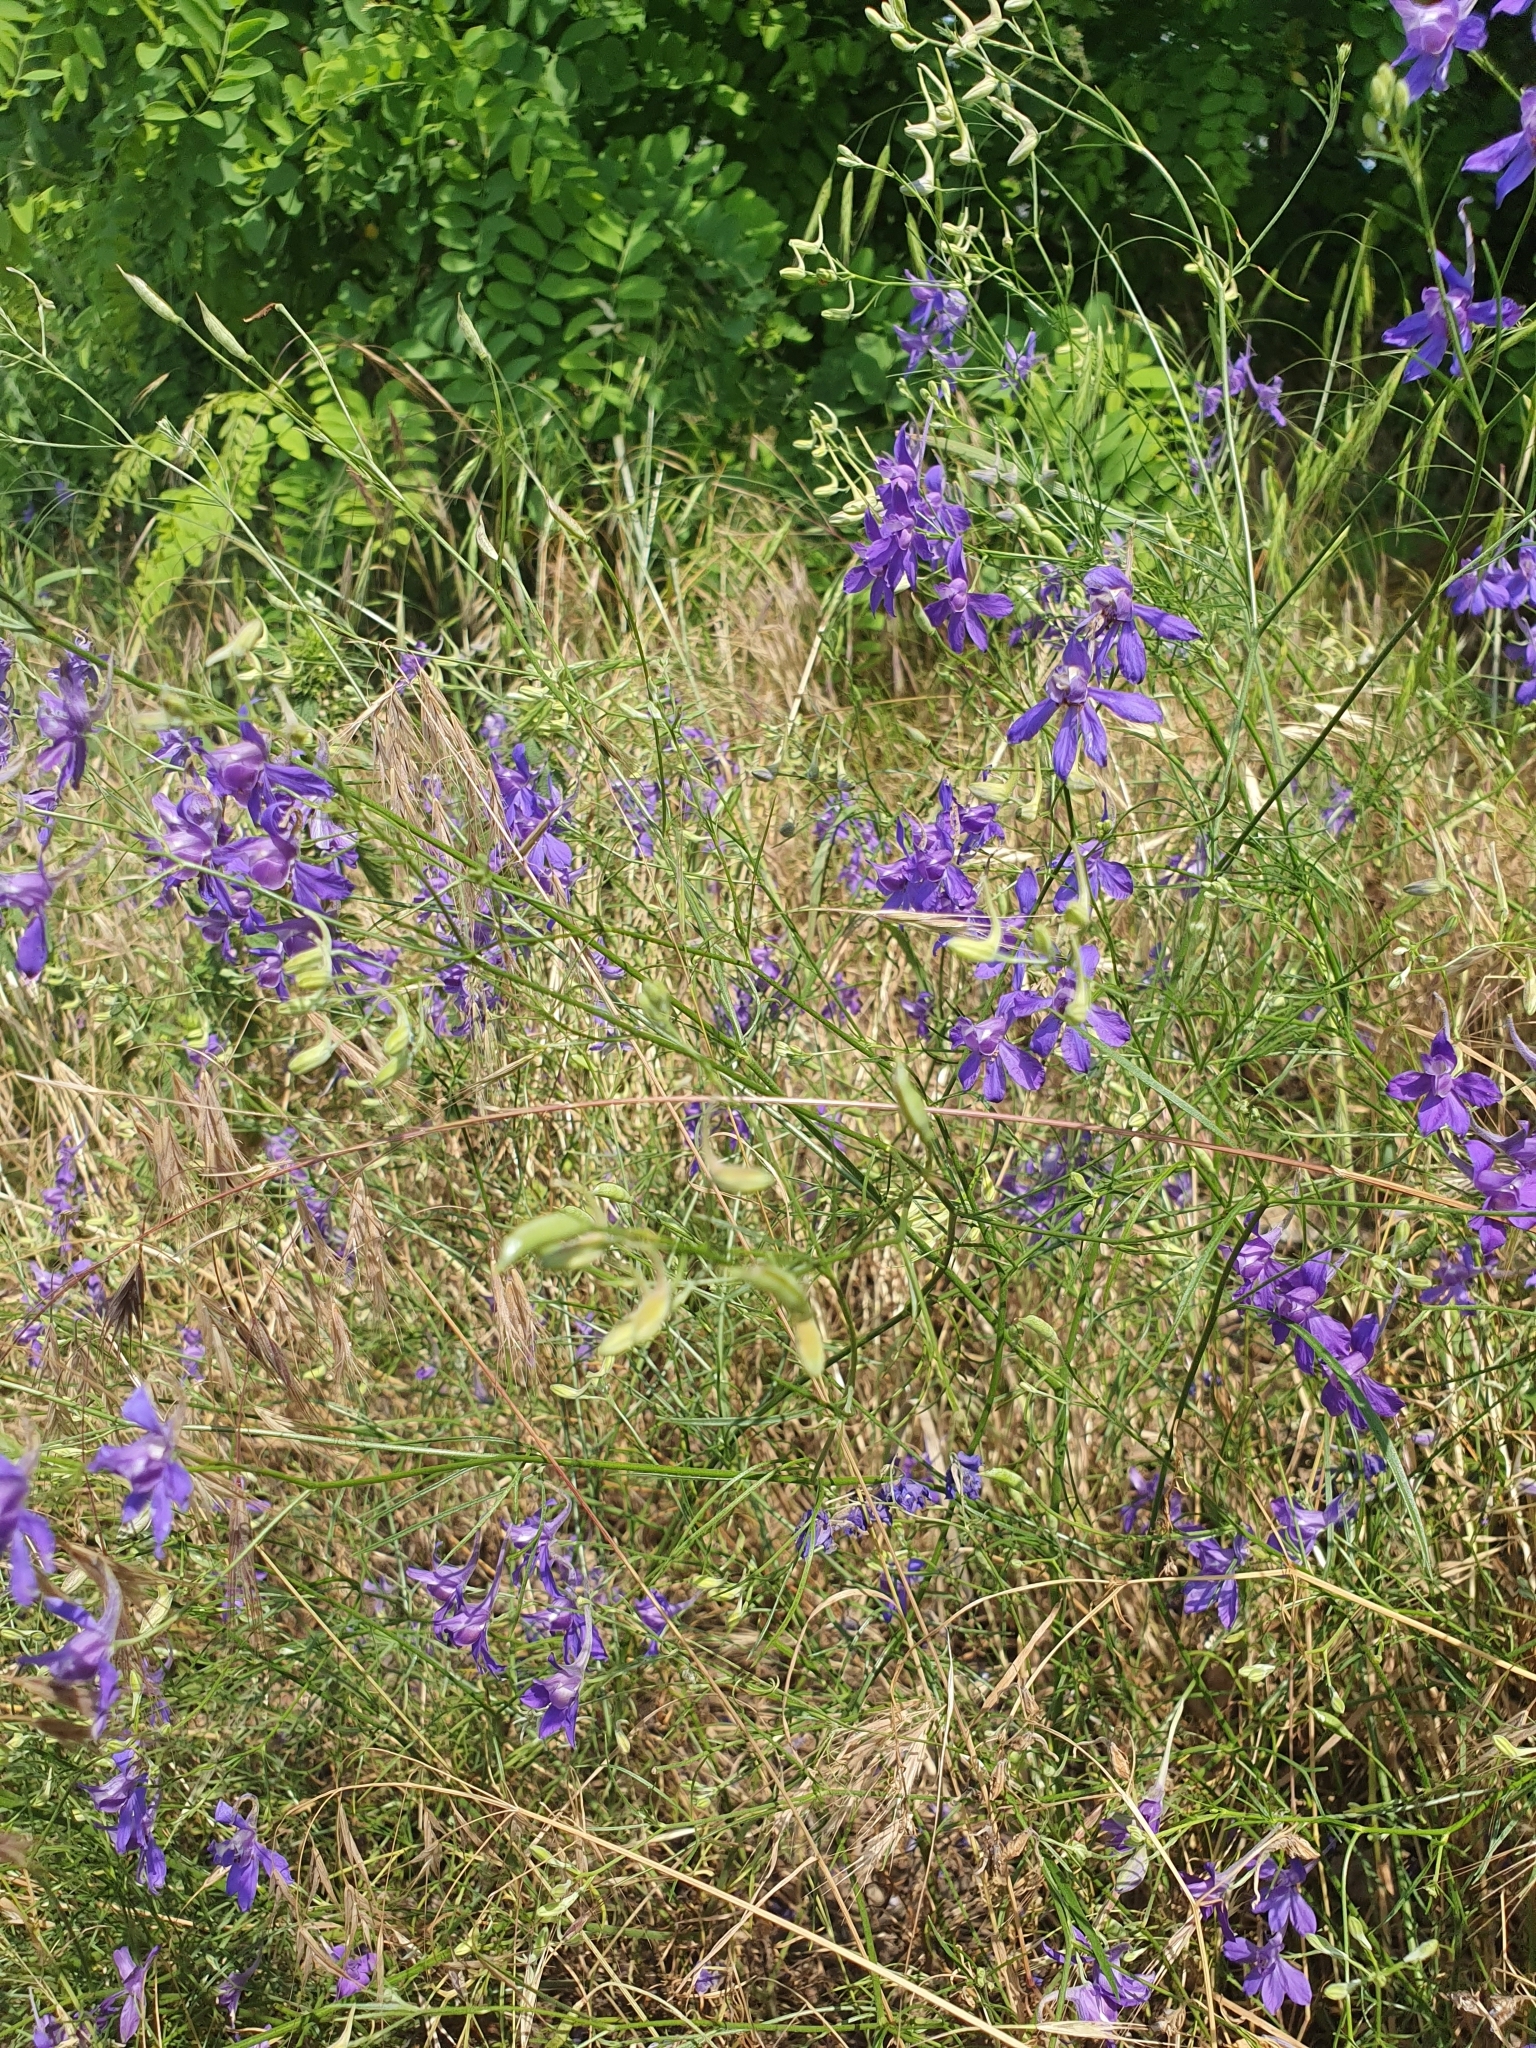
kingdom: Plantae
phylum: Tracheophyta
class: Magnoliopsida
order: Ranunculales
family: Ranunculaceae
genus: Delphinium
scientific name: Delphinium consolida
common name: Branching larkspur
